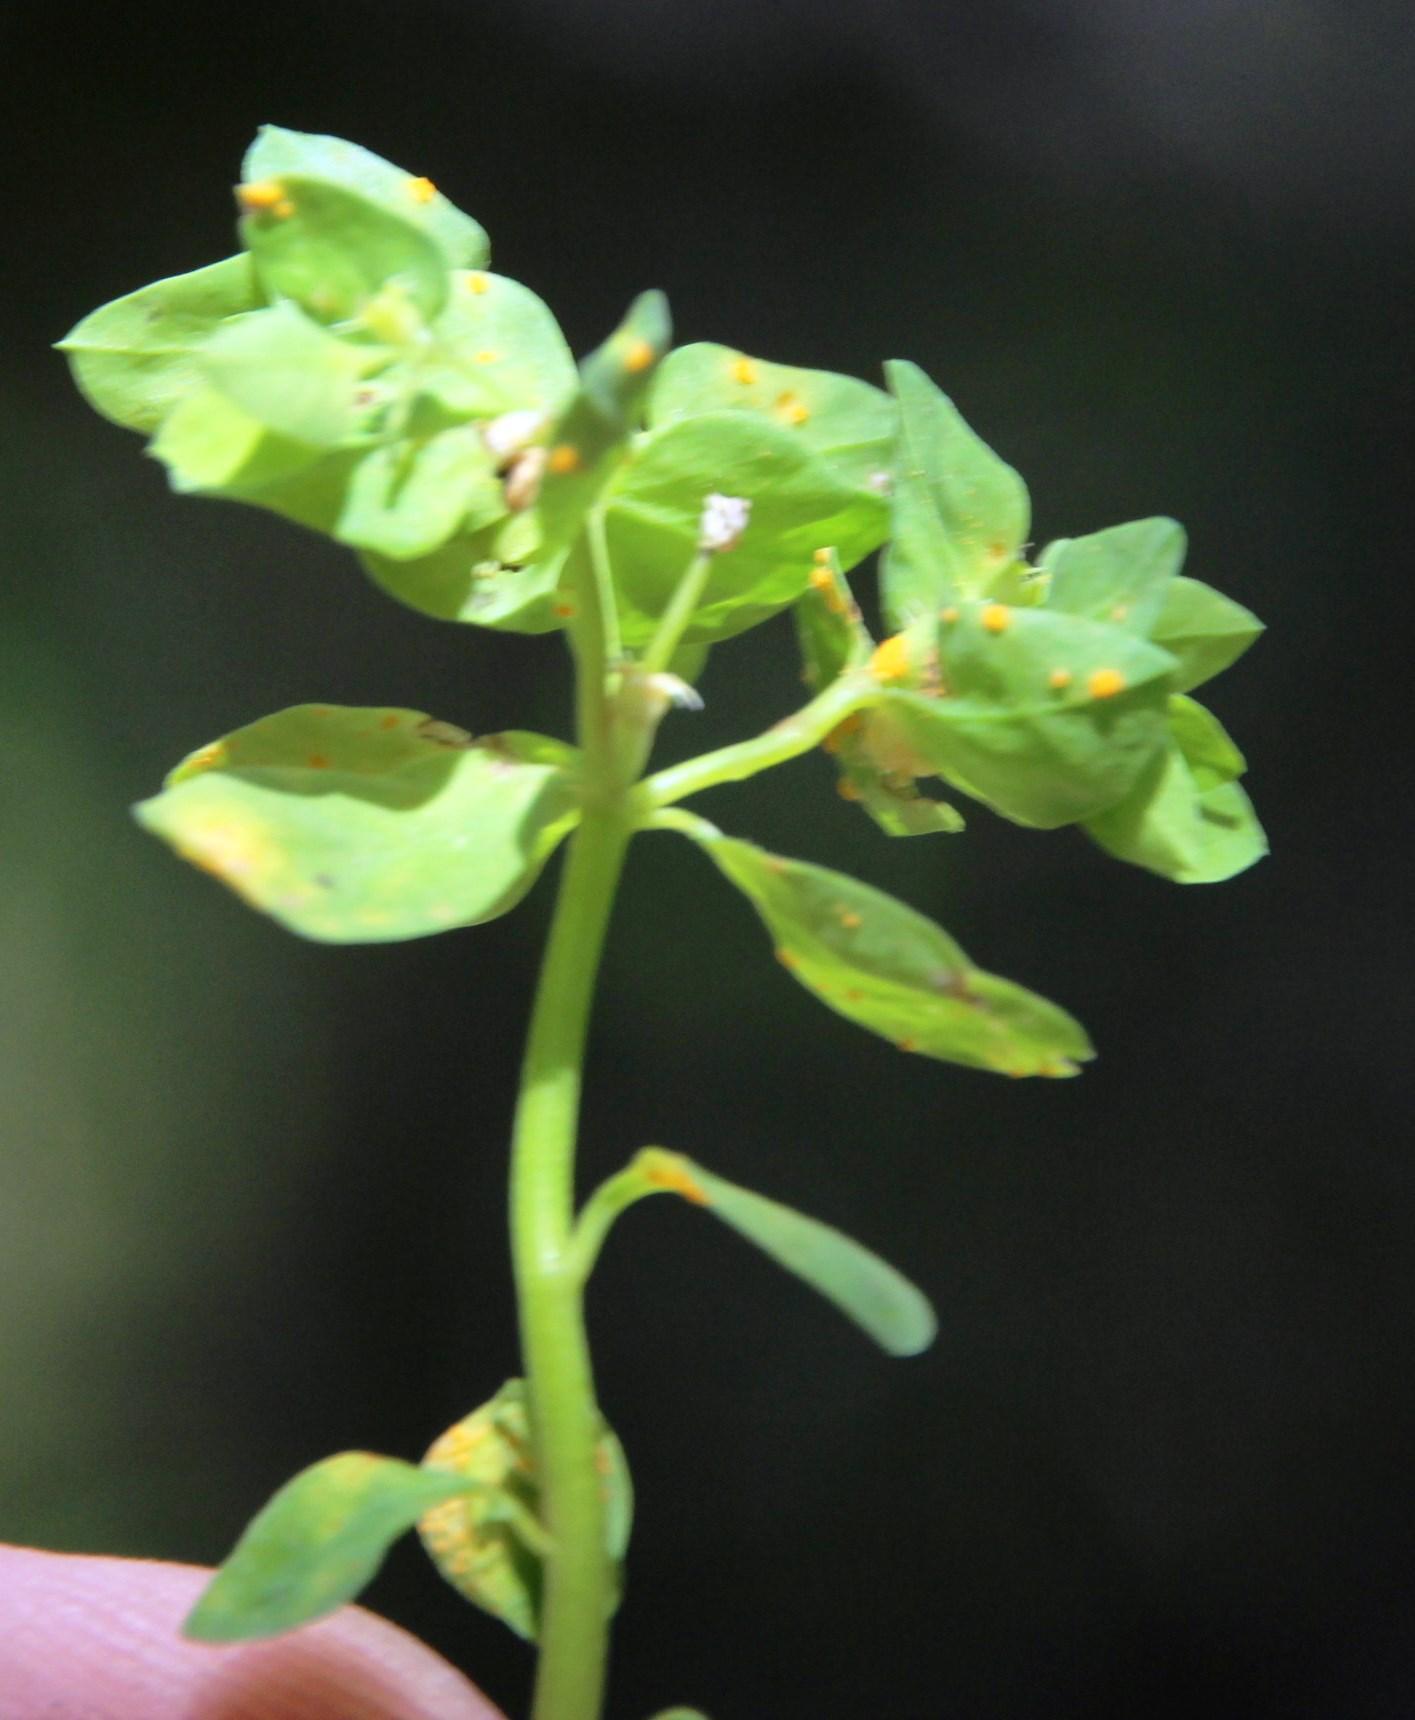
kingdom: Plantae
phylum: Tracheophyta
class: Magnoliopsida
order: Malpighiales
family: Euphorbiaceae
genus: Euphorbia
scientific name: Euphorbia peplus
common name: Petty spurge
